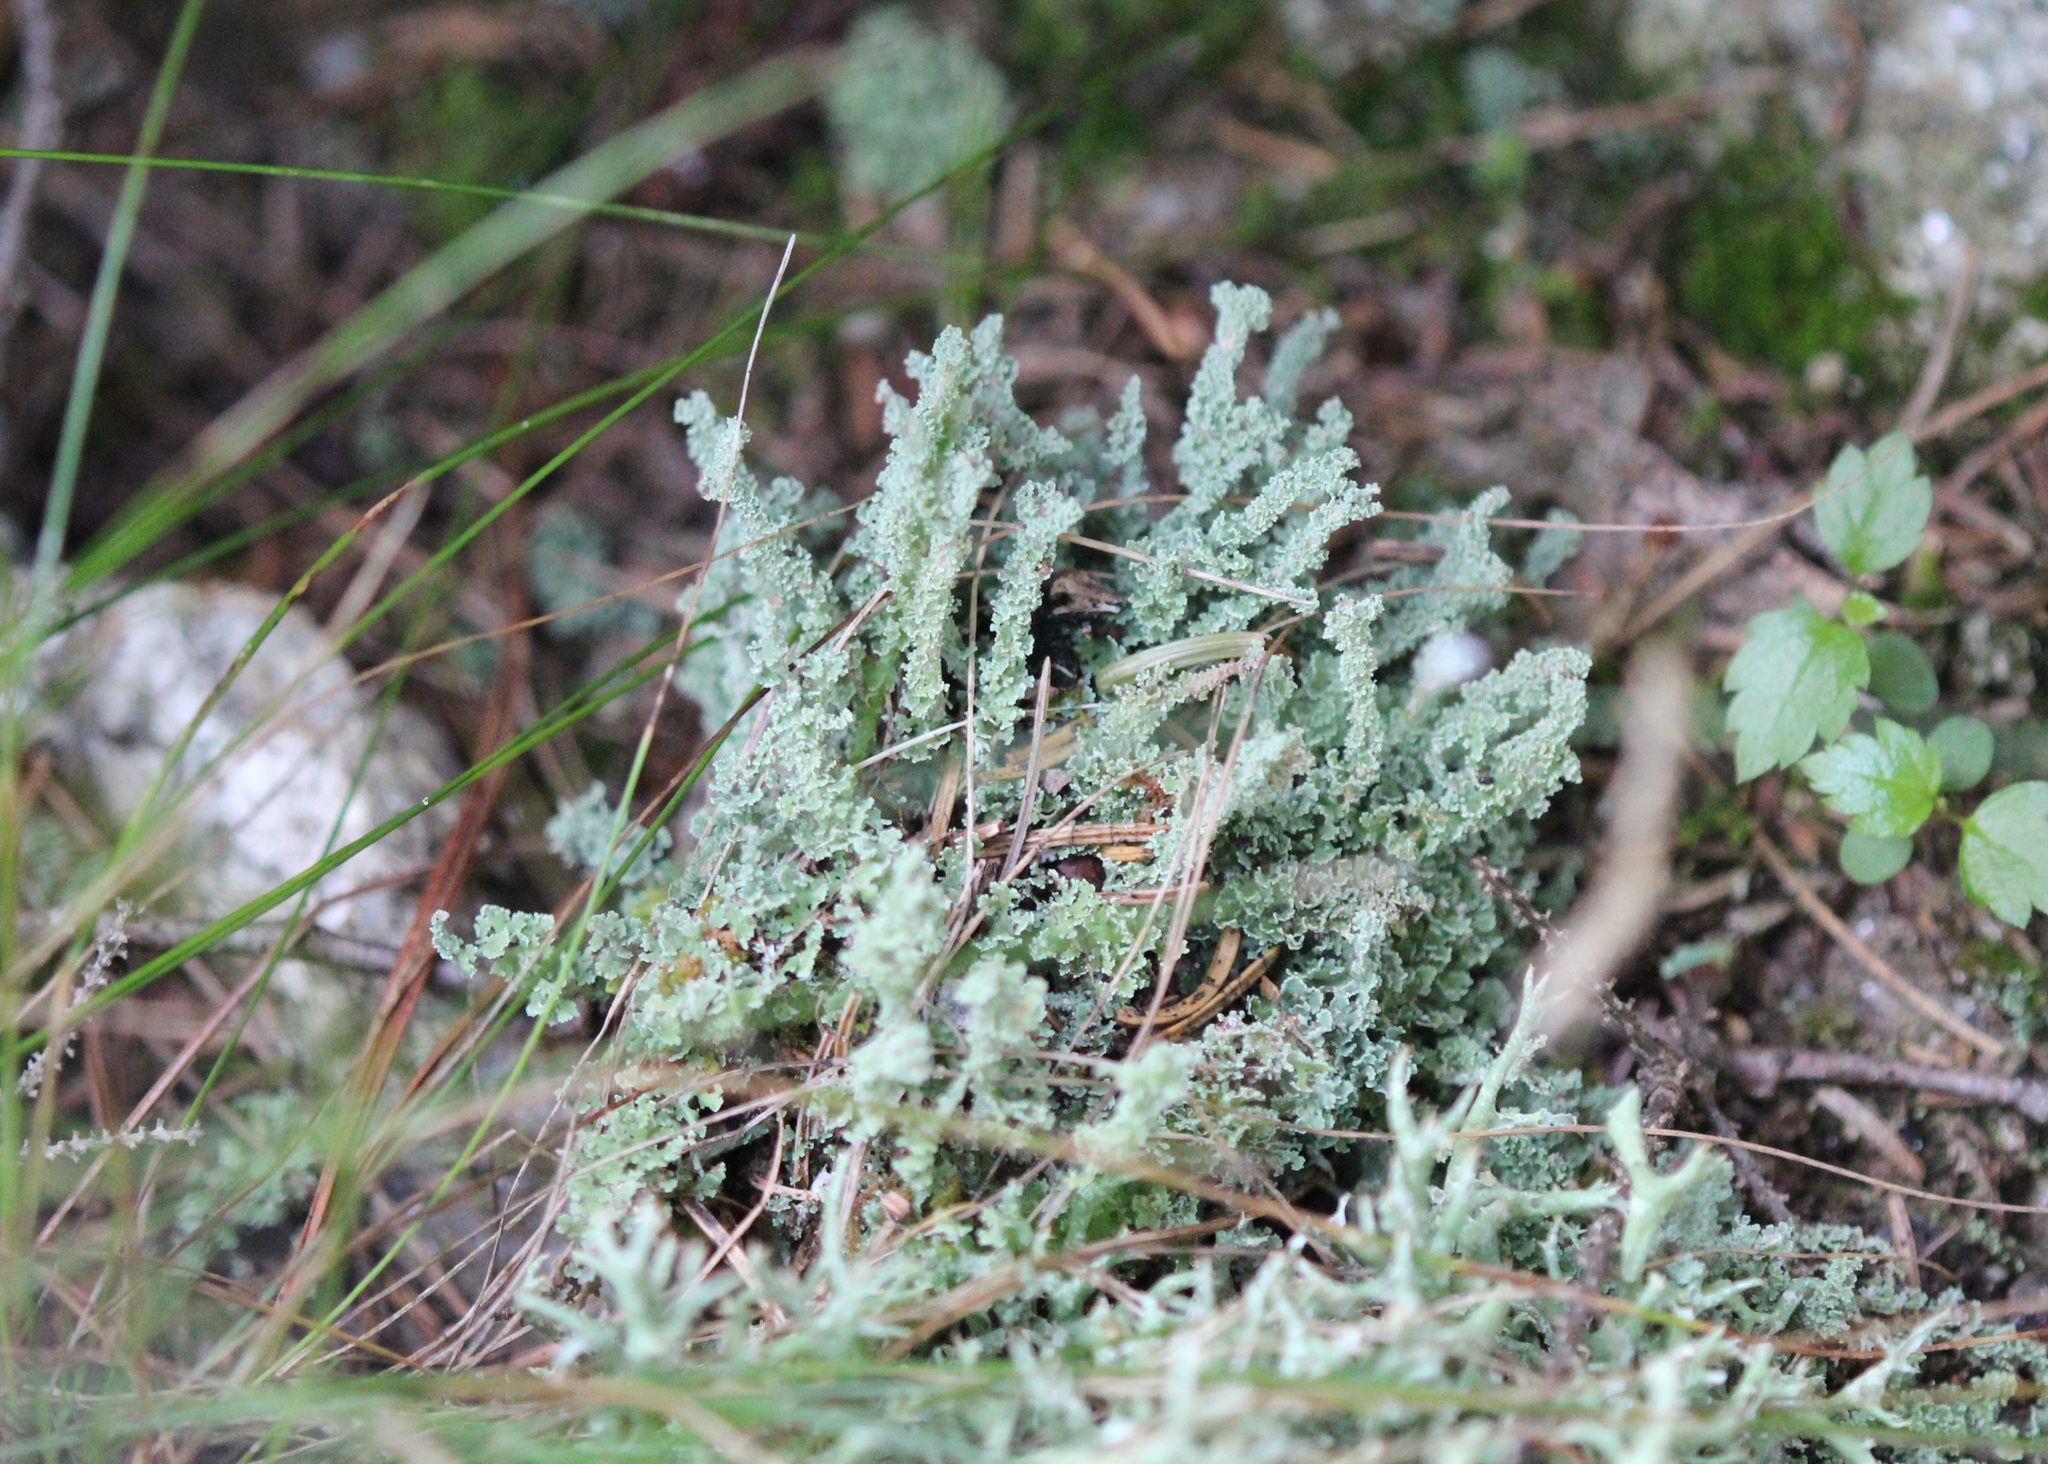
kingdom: Fungi
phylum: Ascomycota
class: Lecanoromycetes
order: Lecanorales
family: Cladoniaceae
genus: Cladonia
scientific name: Cladonia squamosa
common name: Dragon horn
